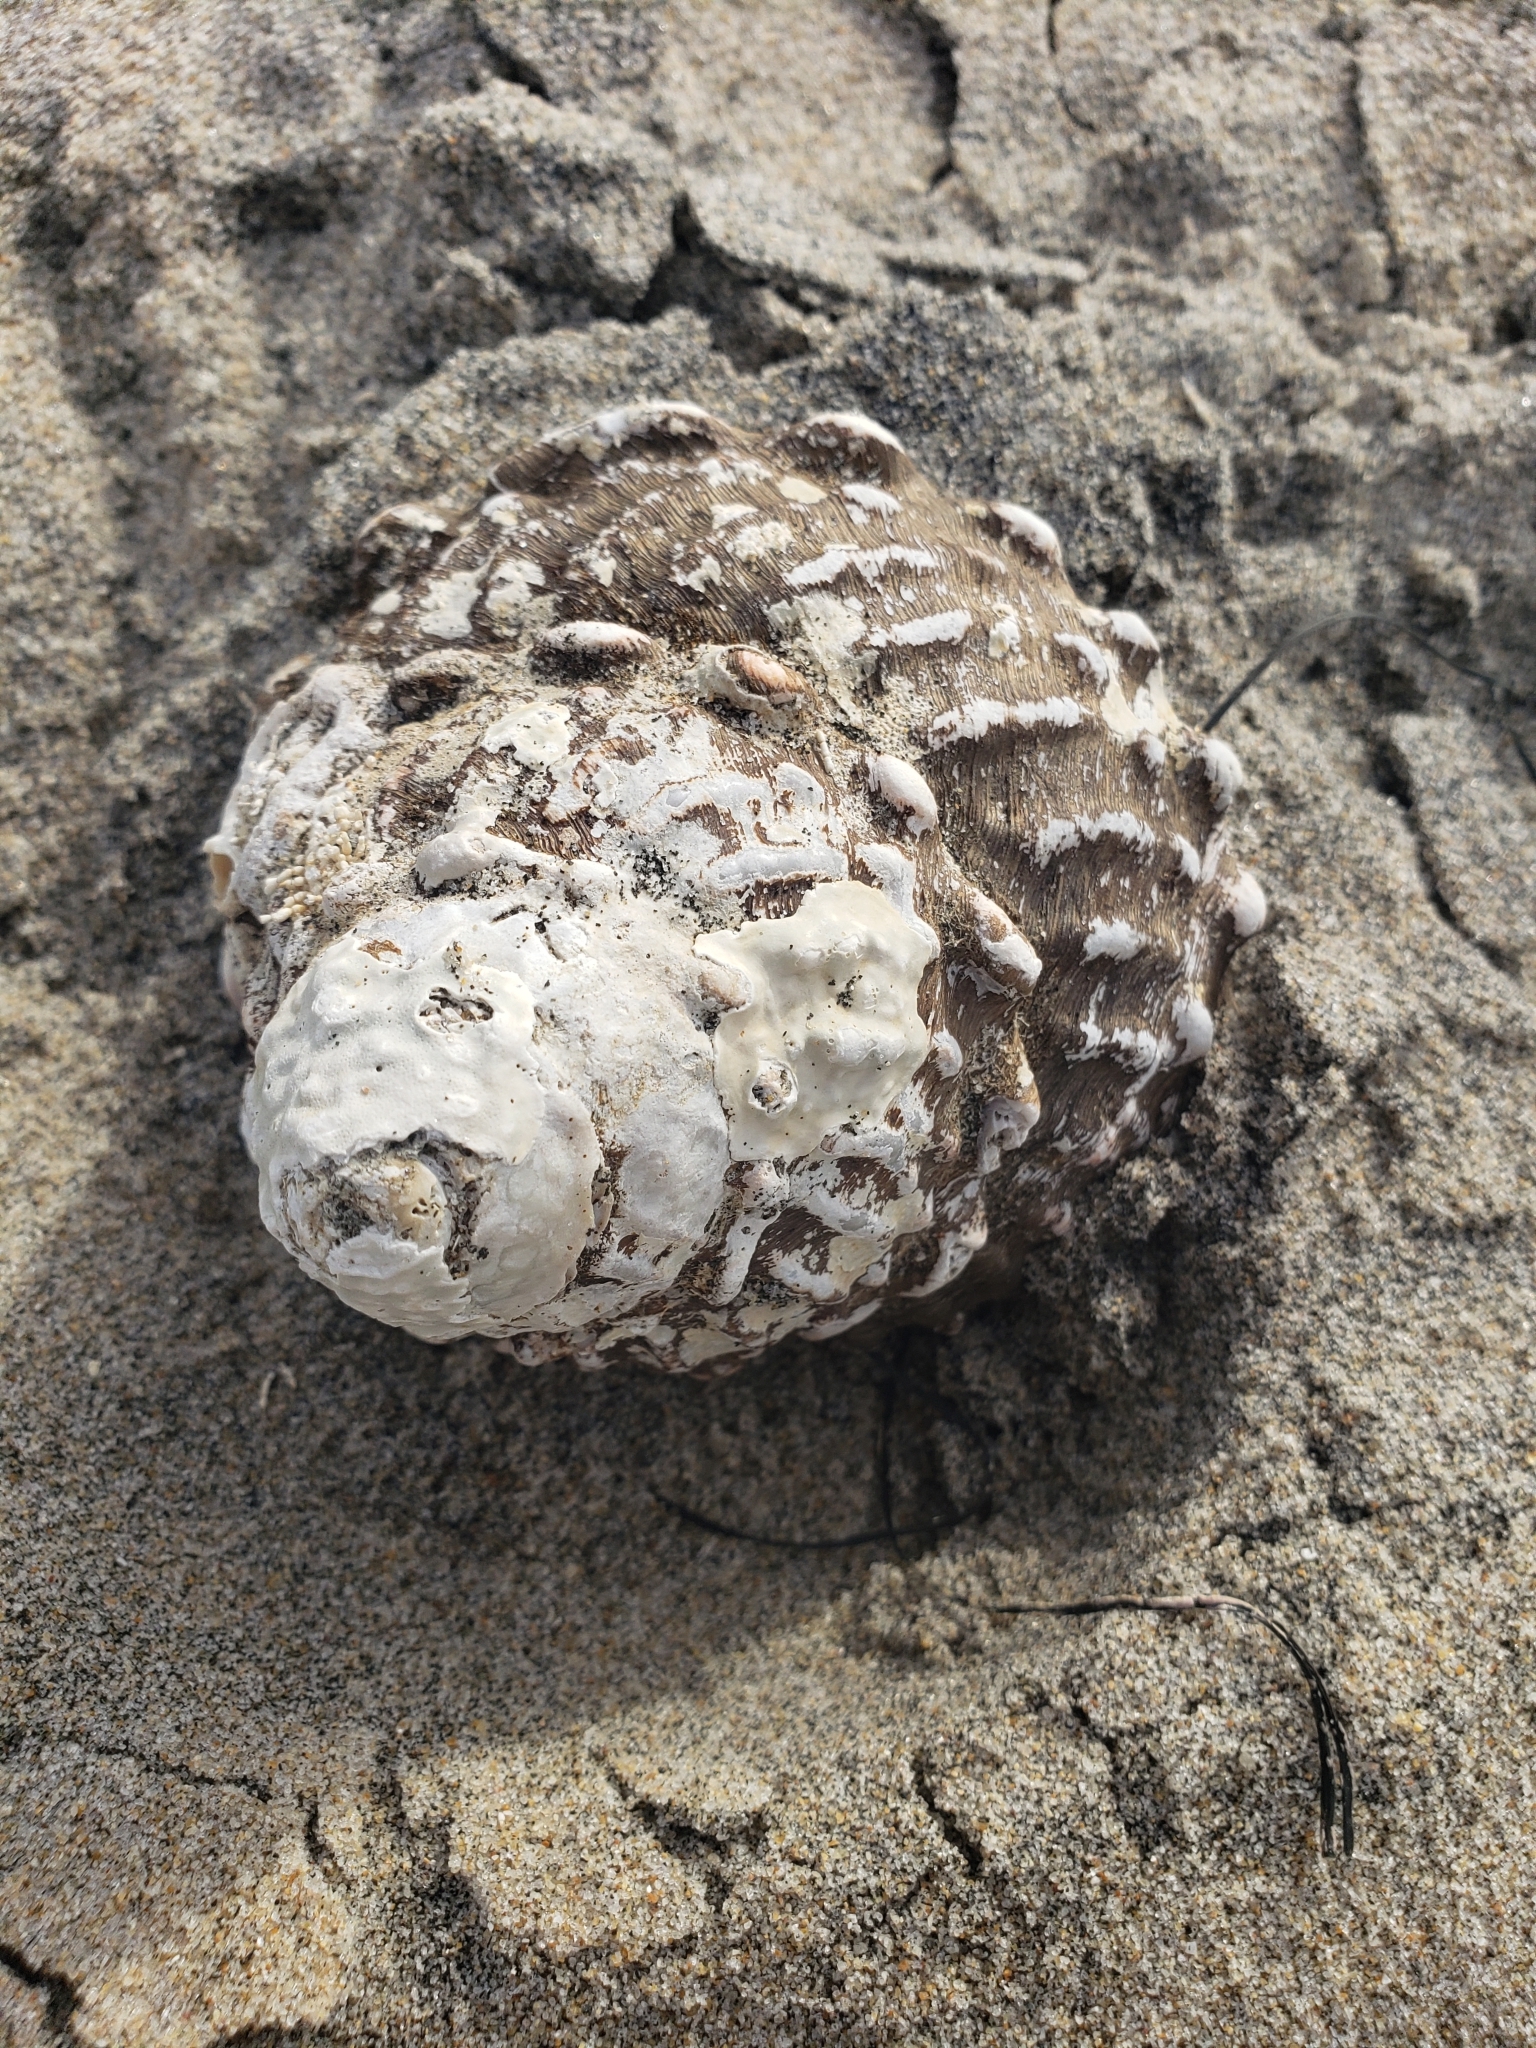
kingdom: Animalia
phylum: Mollusca
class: Gastropoda
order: Trochida
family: Turbinidae
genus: Megastraea
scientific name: Megastraea undosa
